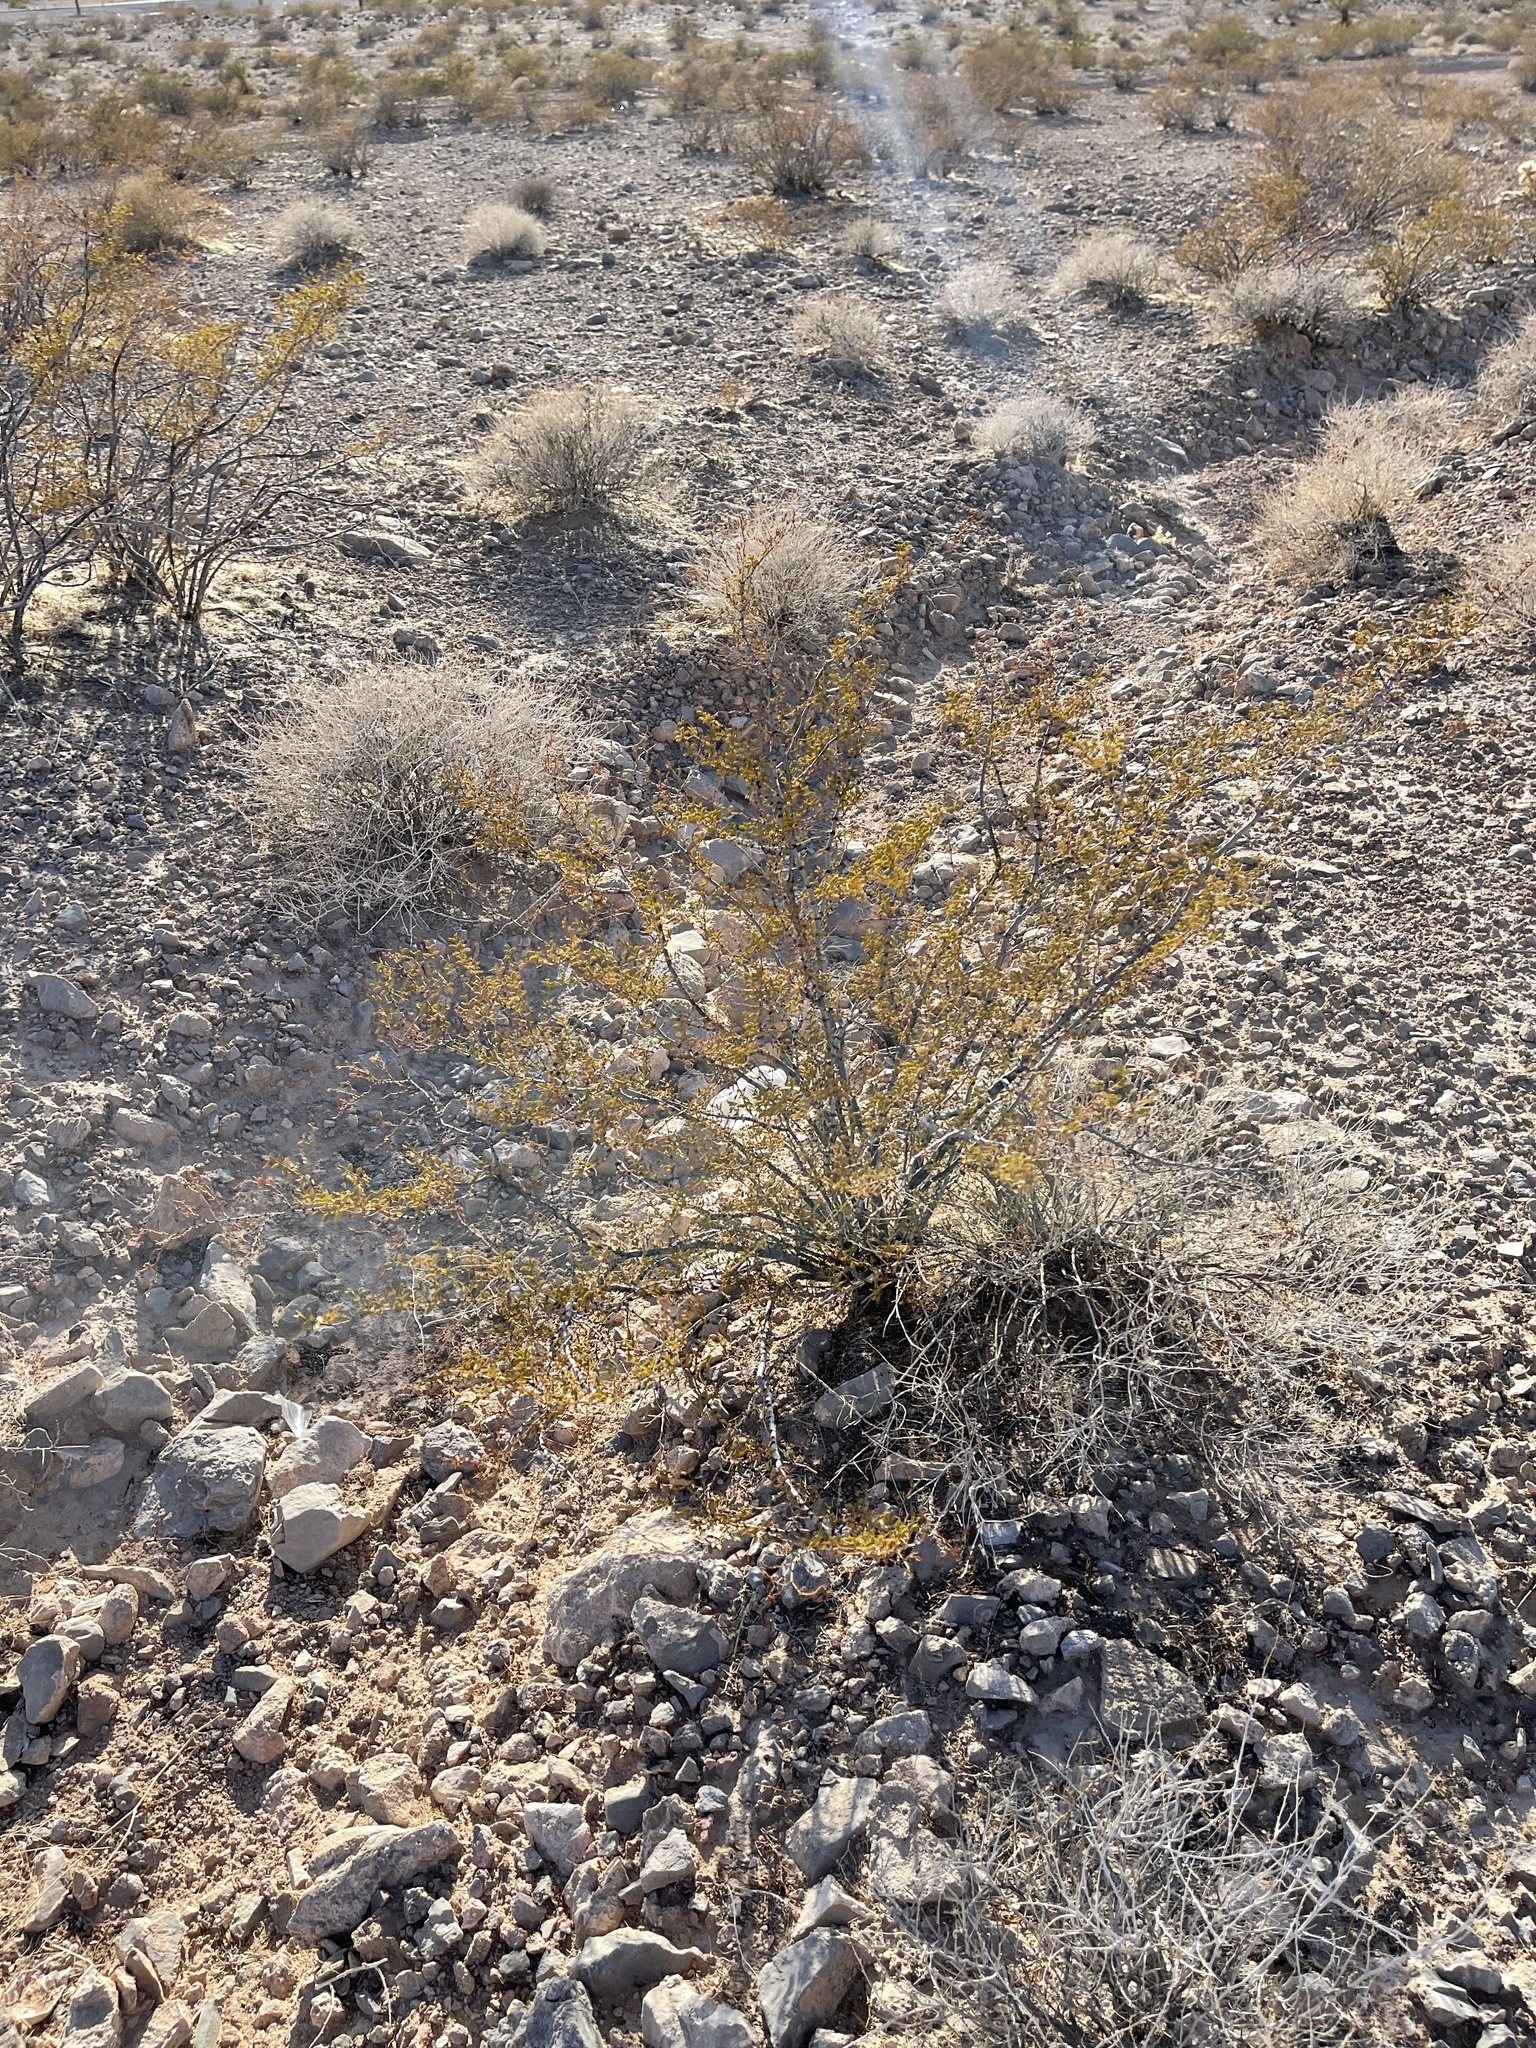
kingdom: Plantae
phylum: Tracheophyta
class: Magnoliopsida
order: Zygophyllales
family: Zygophyllaceae
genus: Larrea
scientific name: Larrea tridentata
